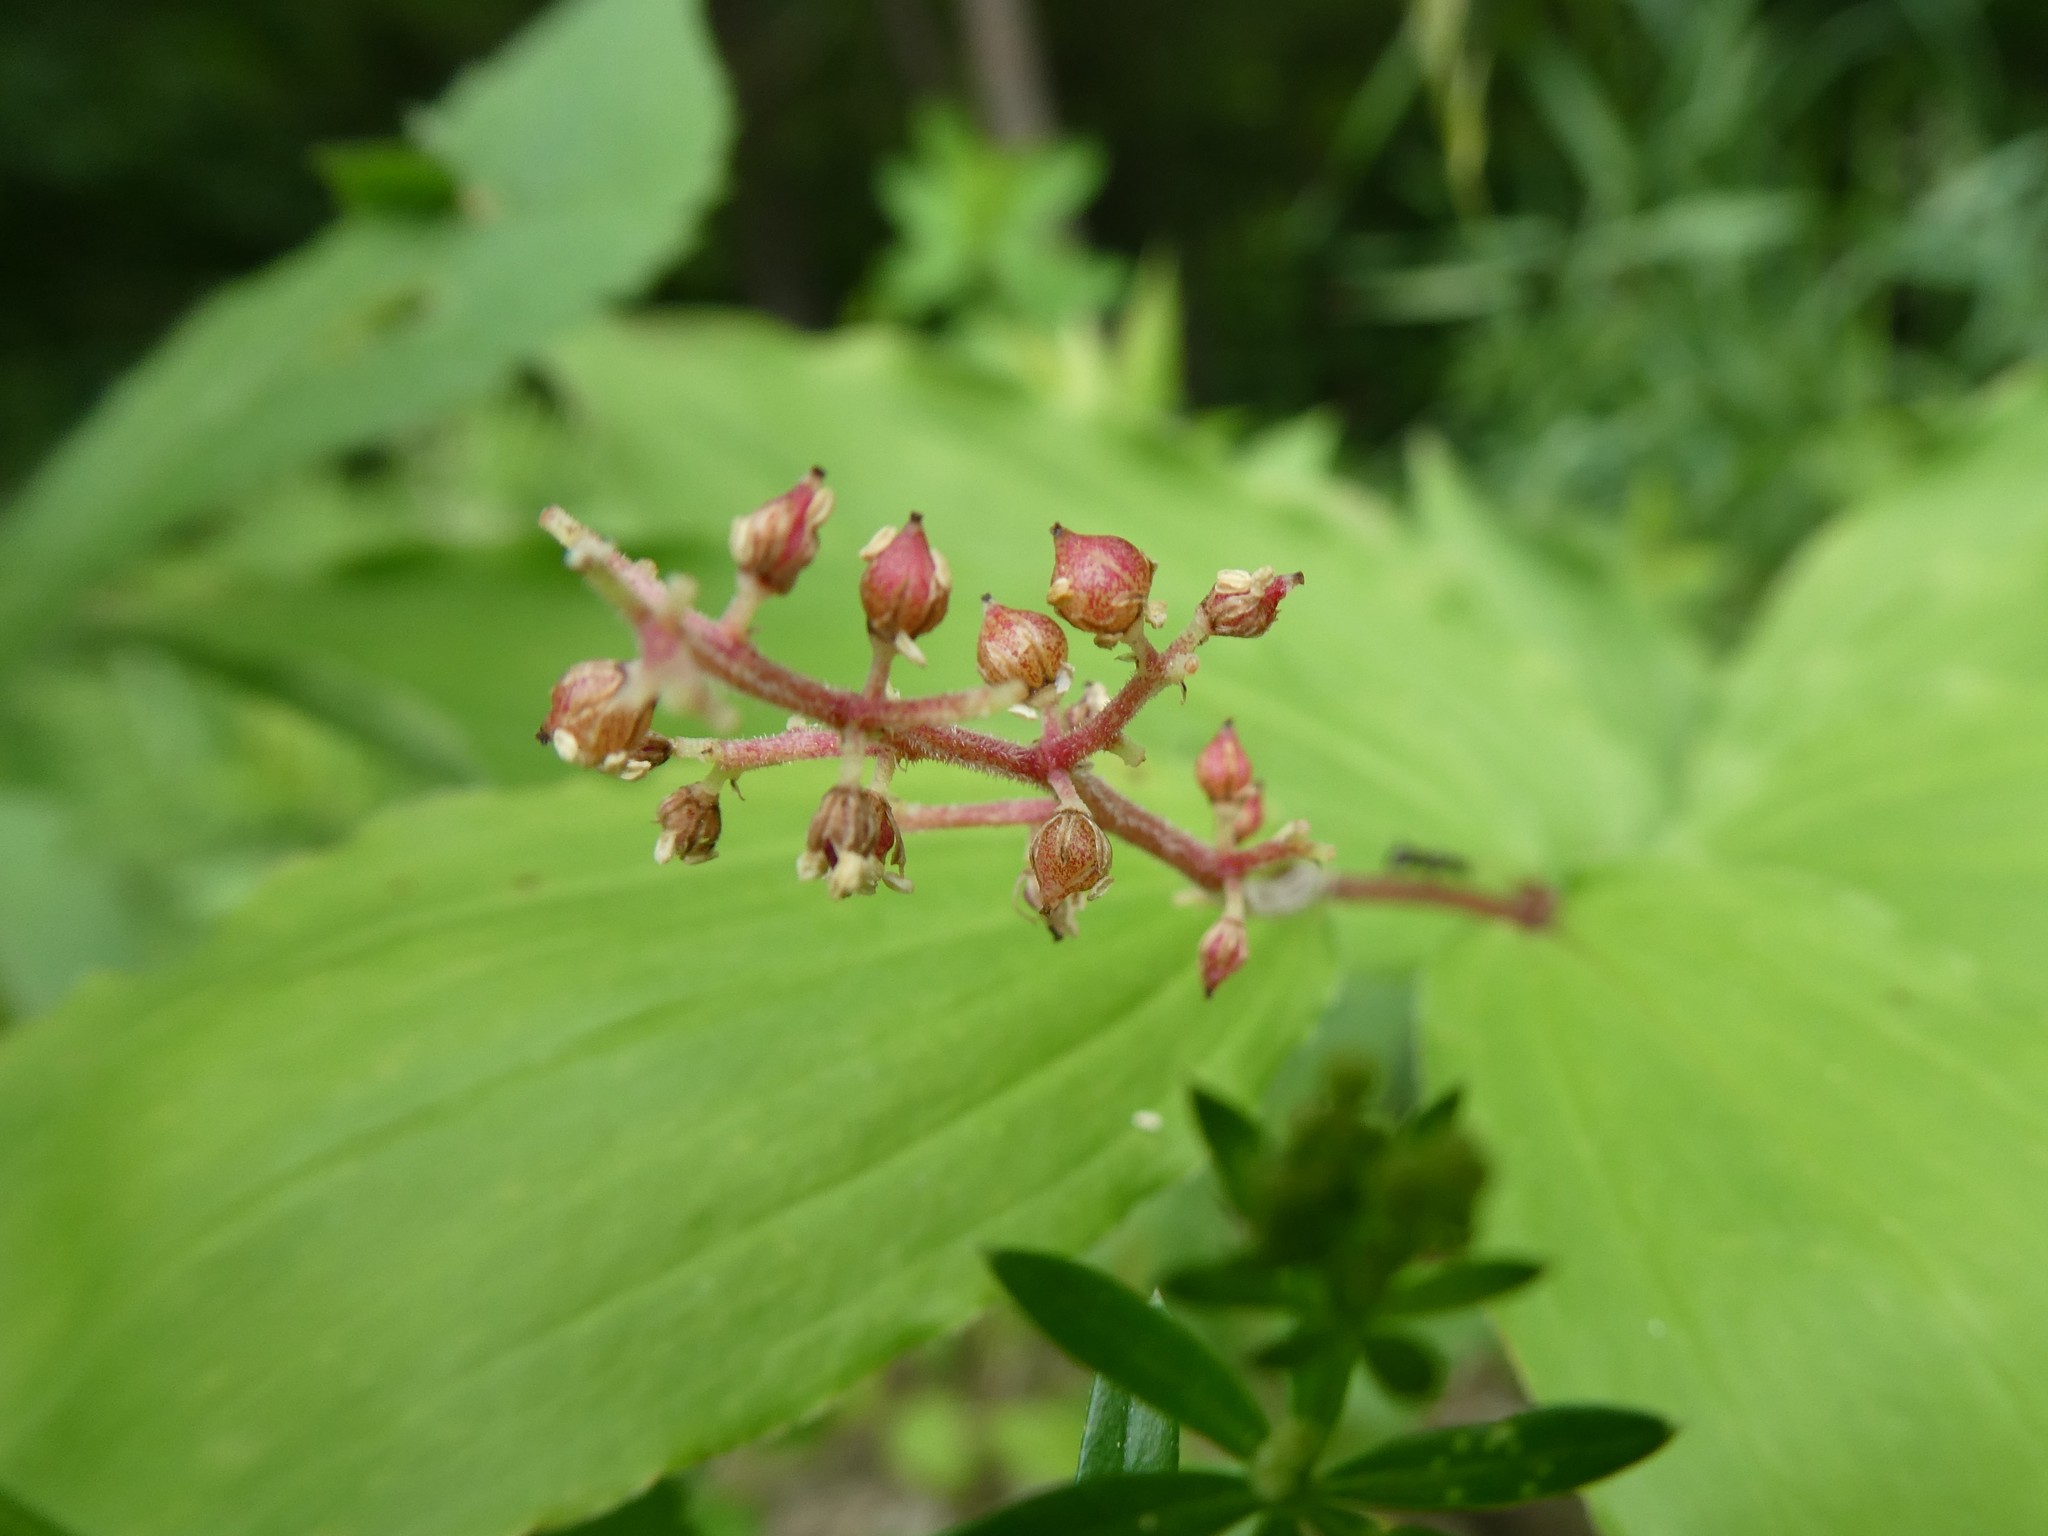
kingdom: Plantae
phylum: Tracheophyta
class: Liliopsida
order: Asparagales
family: Asparagaceae
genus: Maianthemum
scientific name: Maianthemum racemosum
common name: False spikenard
